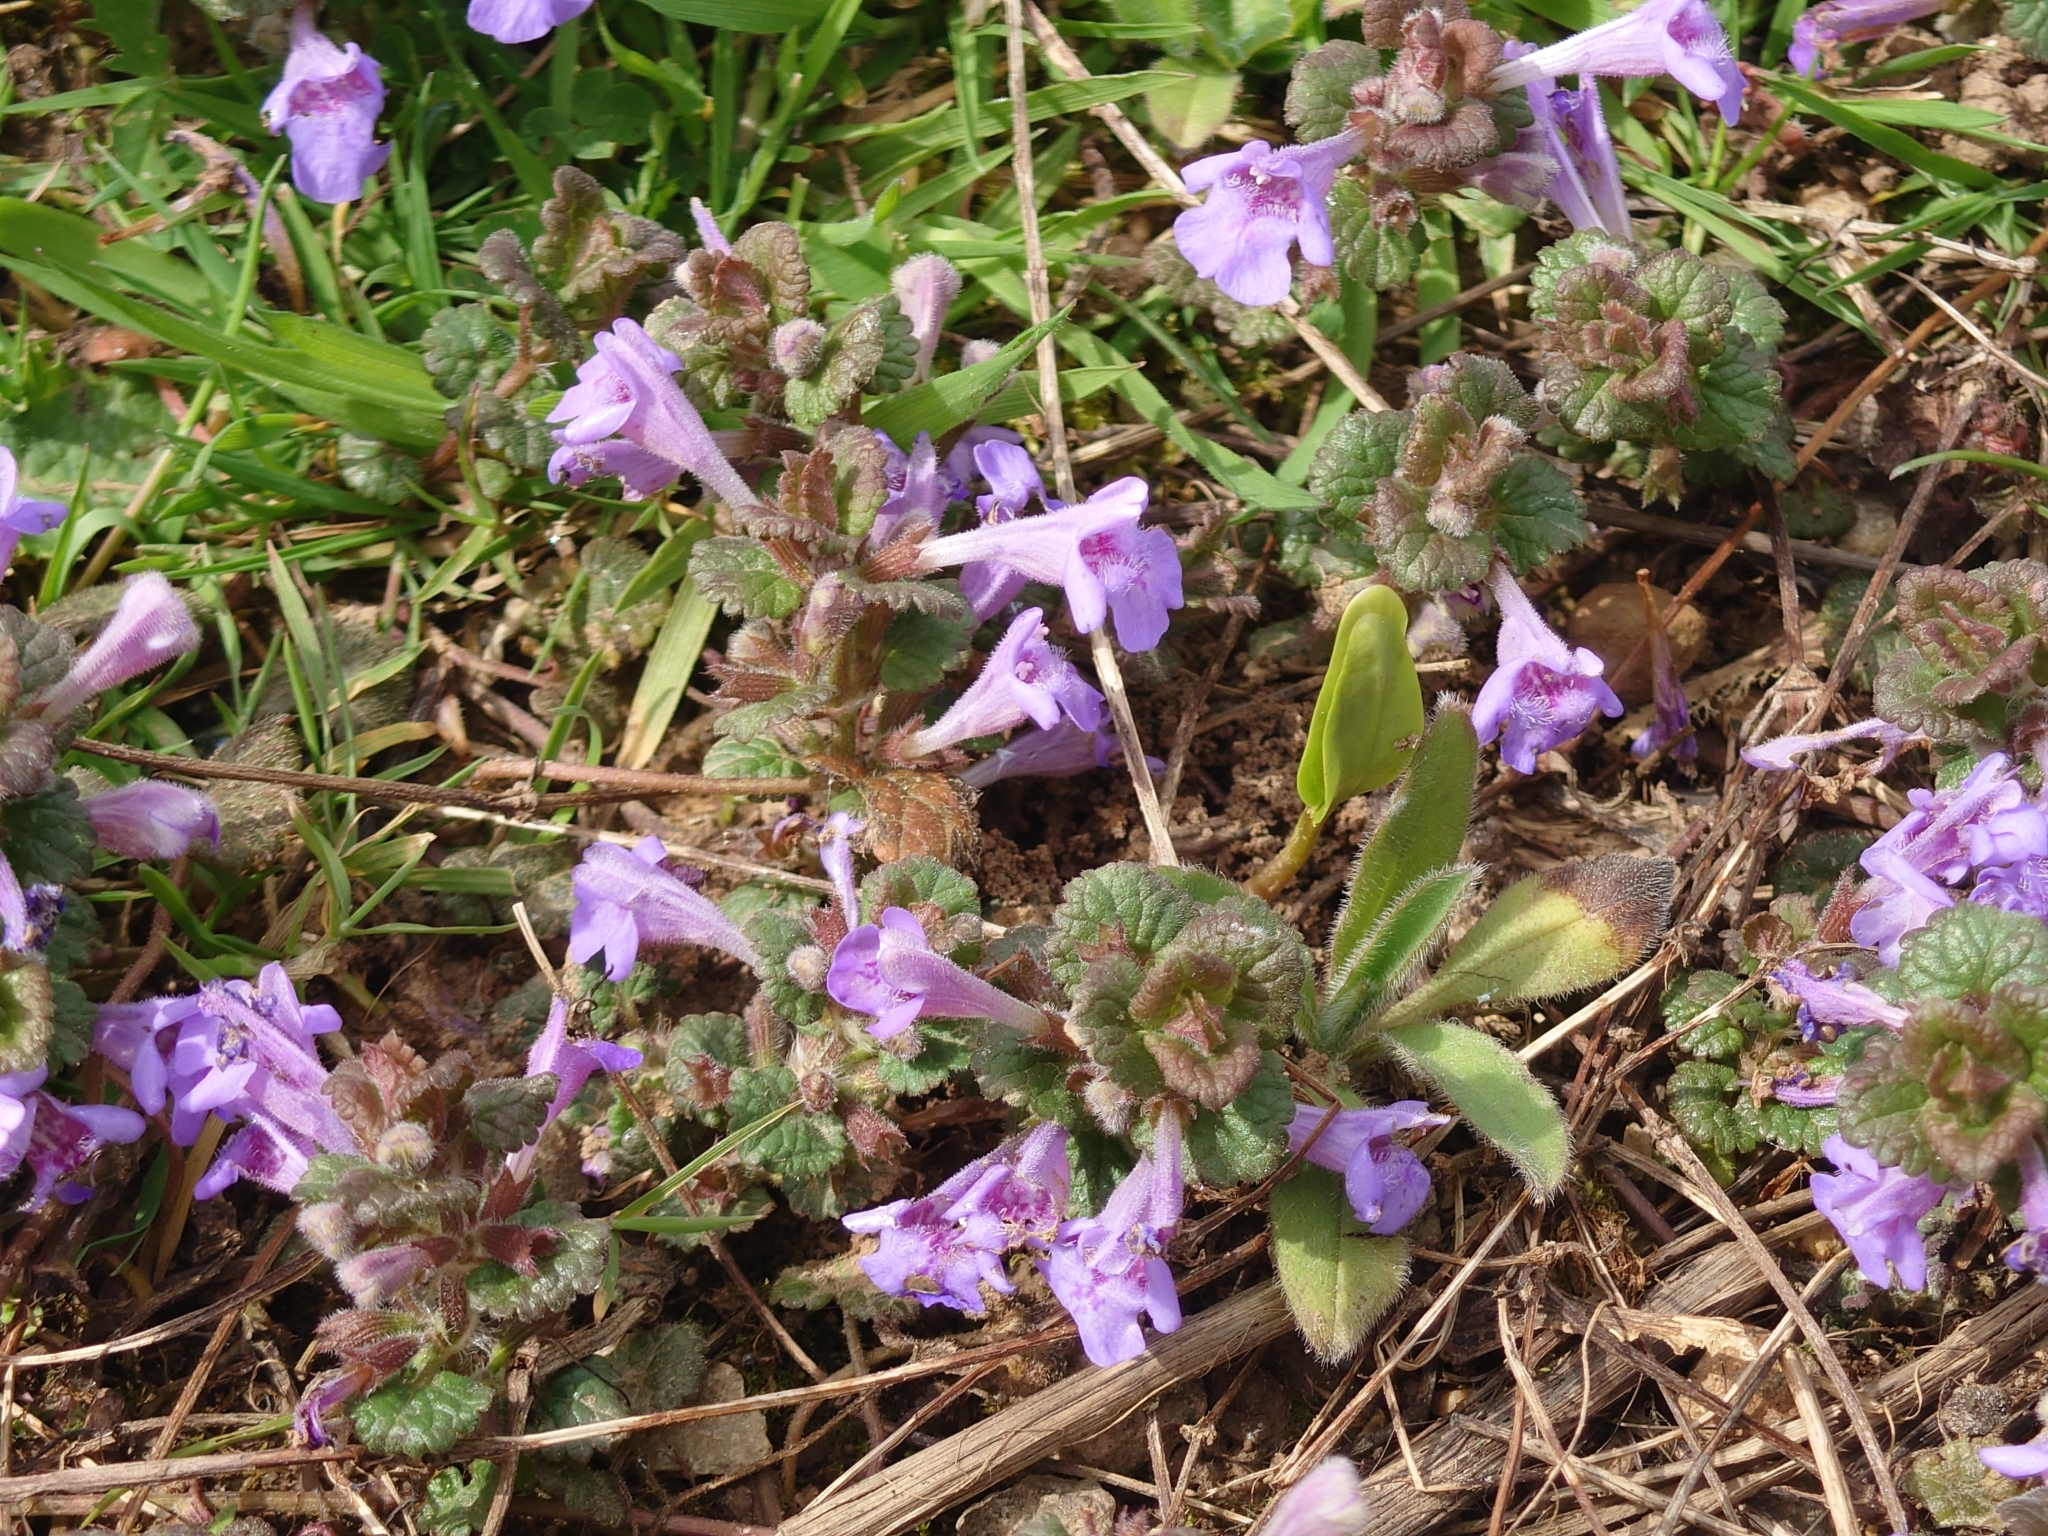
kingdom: Plantae
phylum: Tracheophyta
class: Magnoliopsida
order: Lamiales
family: Lamiaceae
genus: Glechoma
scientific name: Glechoma hederacea
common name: Ground ivy
